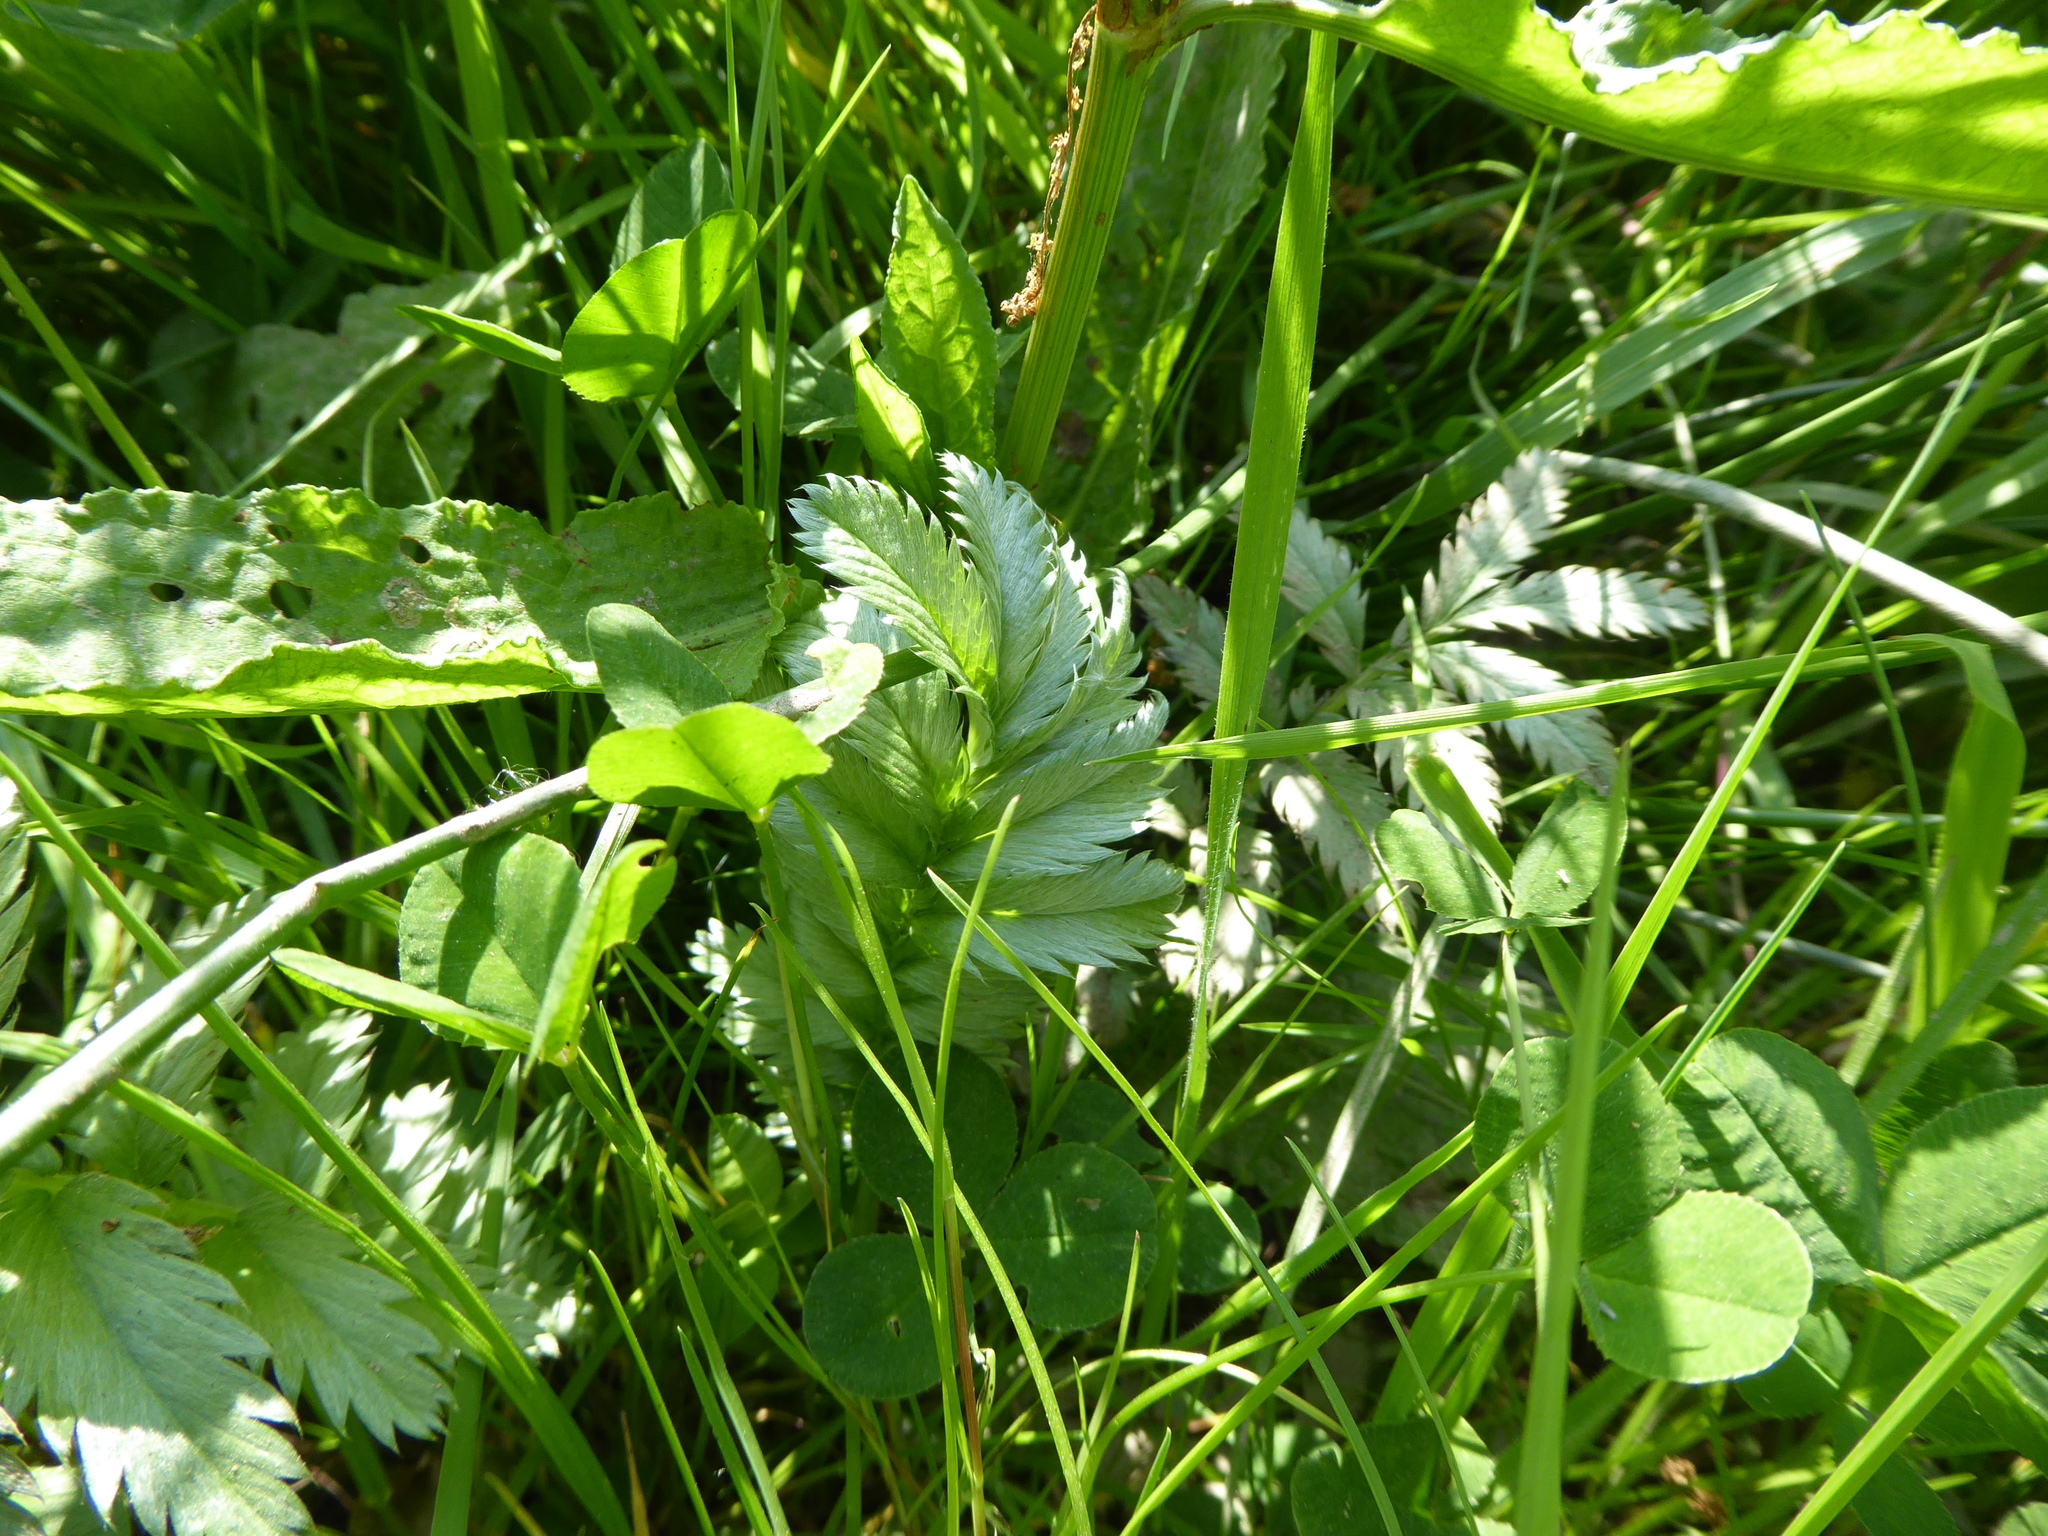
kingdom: Plantae
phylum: Tracheophyta
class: Magnoliopsida
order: Rosales
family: Rosaceae
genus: Argentina
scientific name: Argentina anserina
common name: Common silverweed
